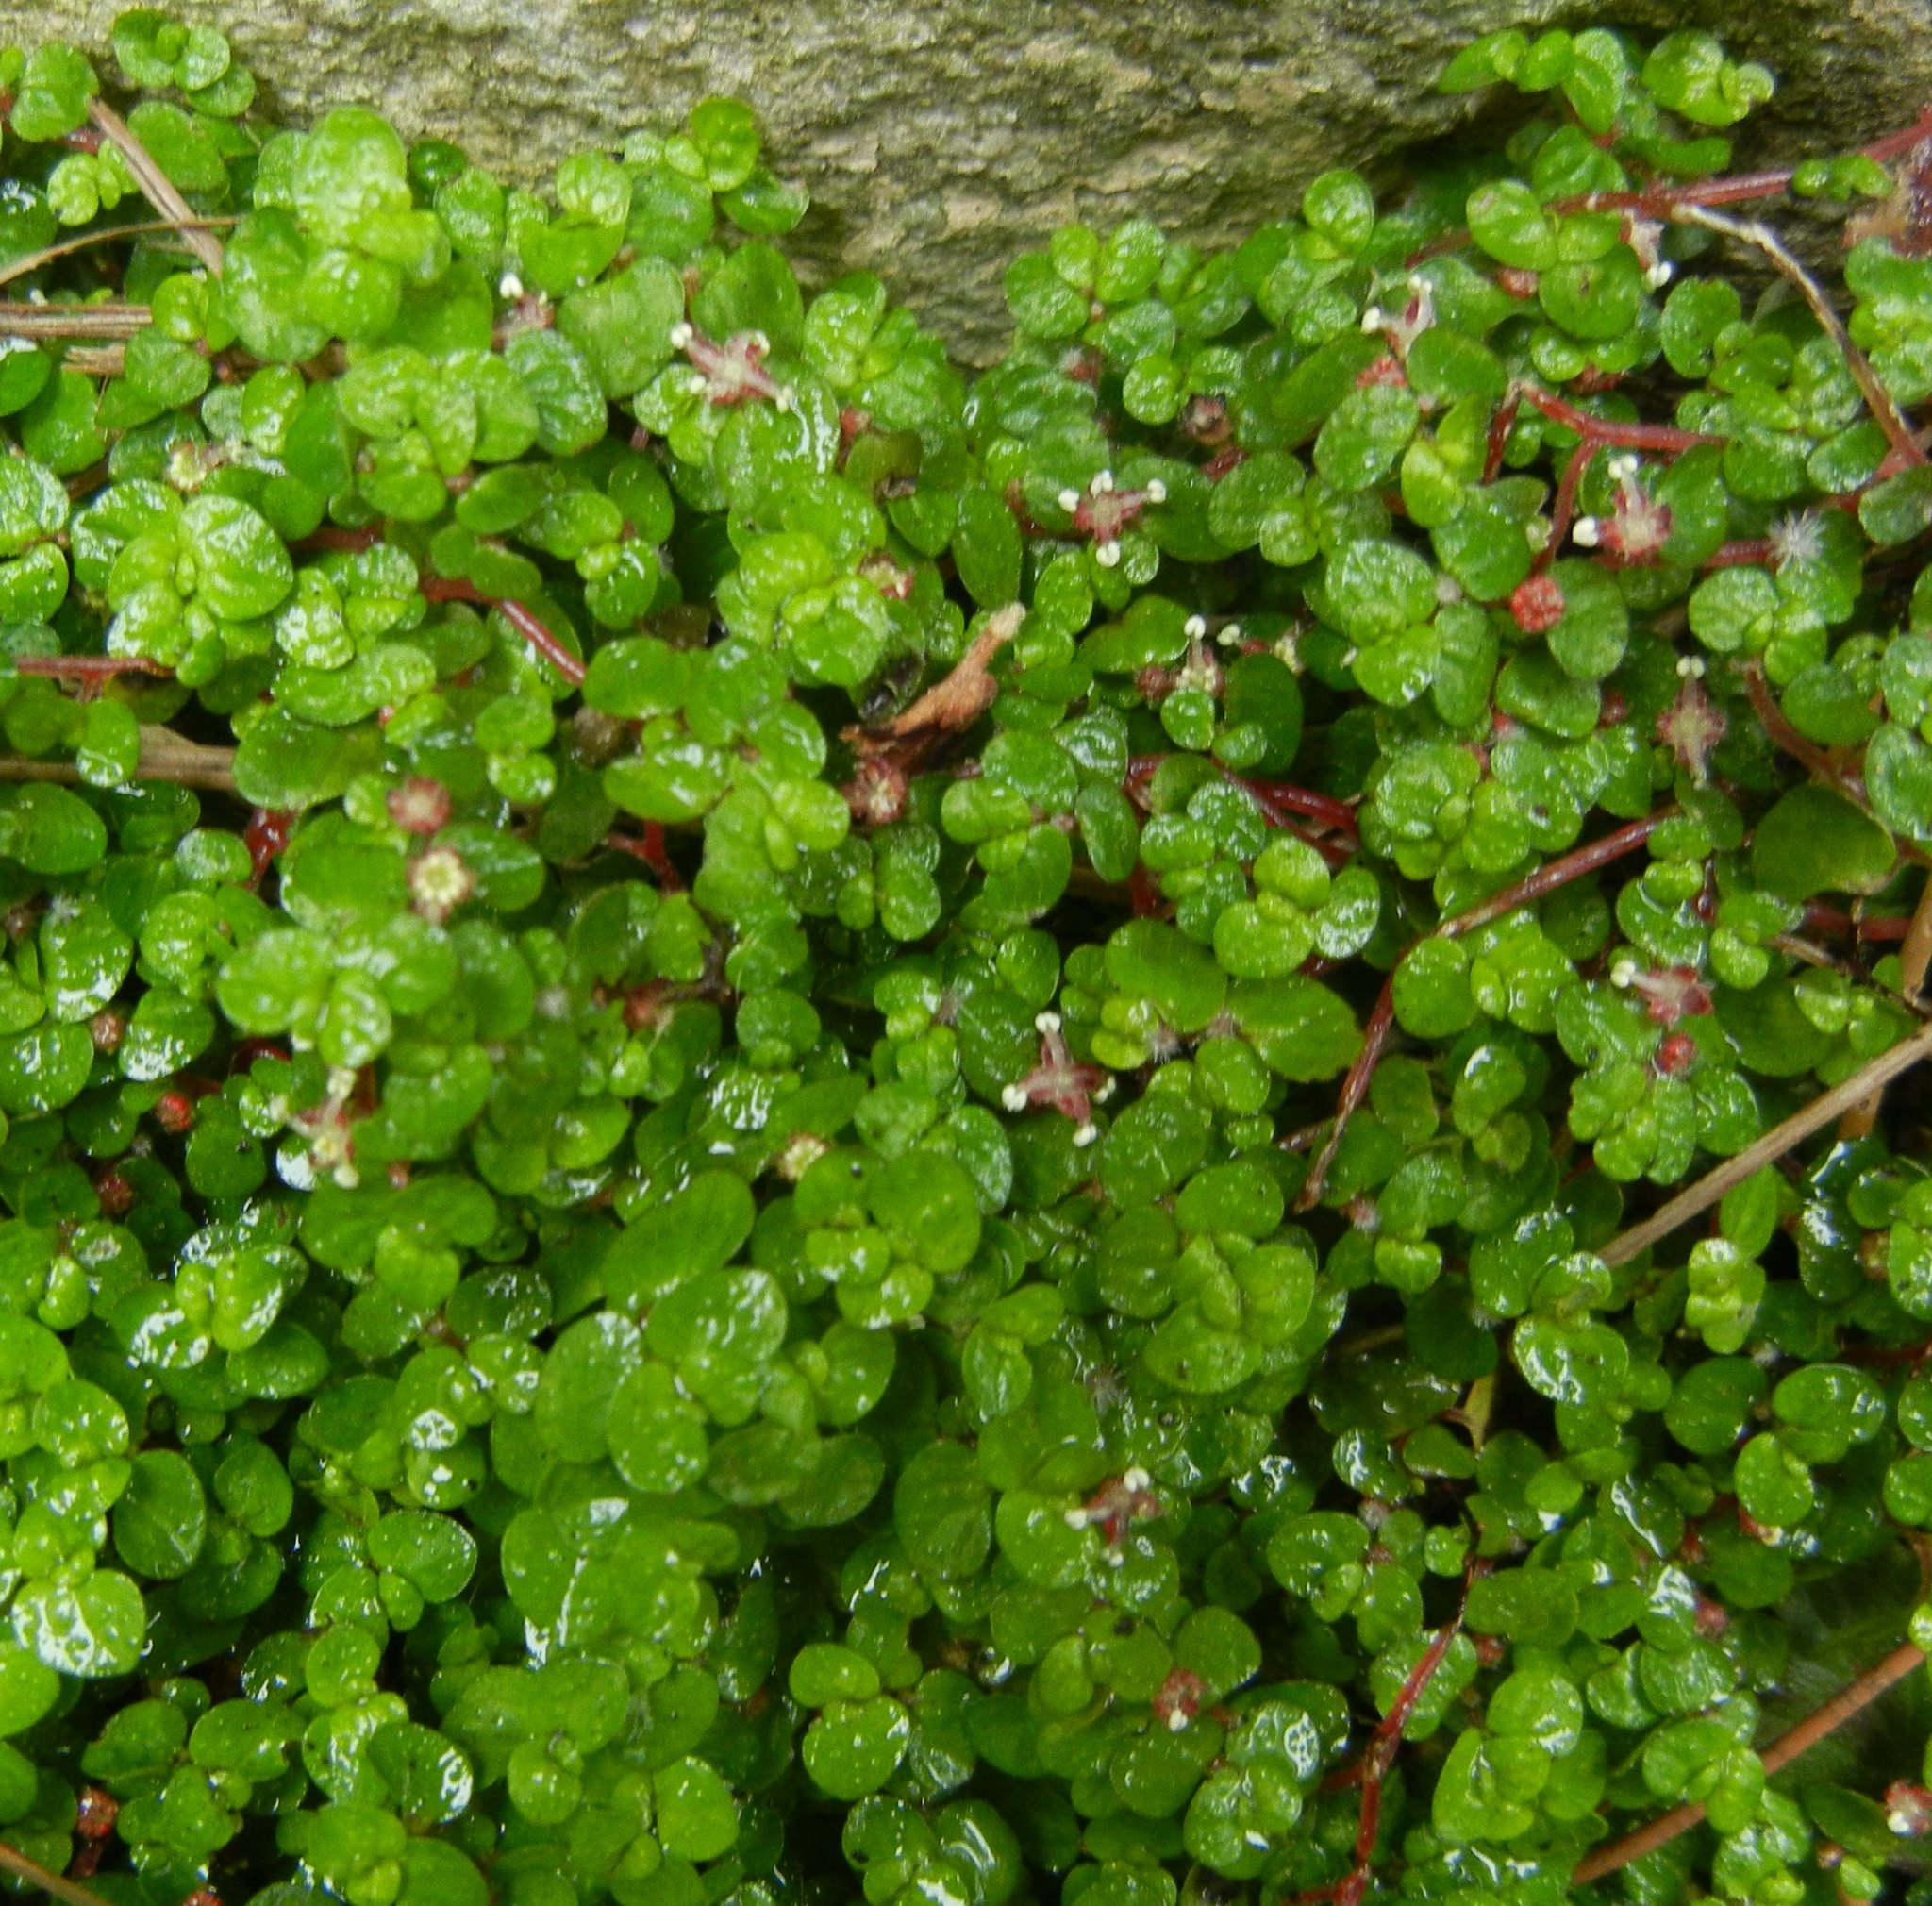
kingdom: Plantae
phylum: Tracheophyta
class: Magnoliopsida
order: Rosales
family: Urticaceae
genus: Soleirolia
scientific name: Soleirolia soleirolii
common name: Mind-your-own-business
